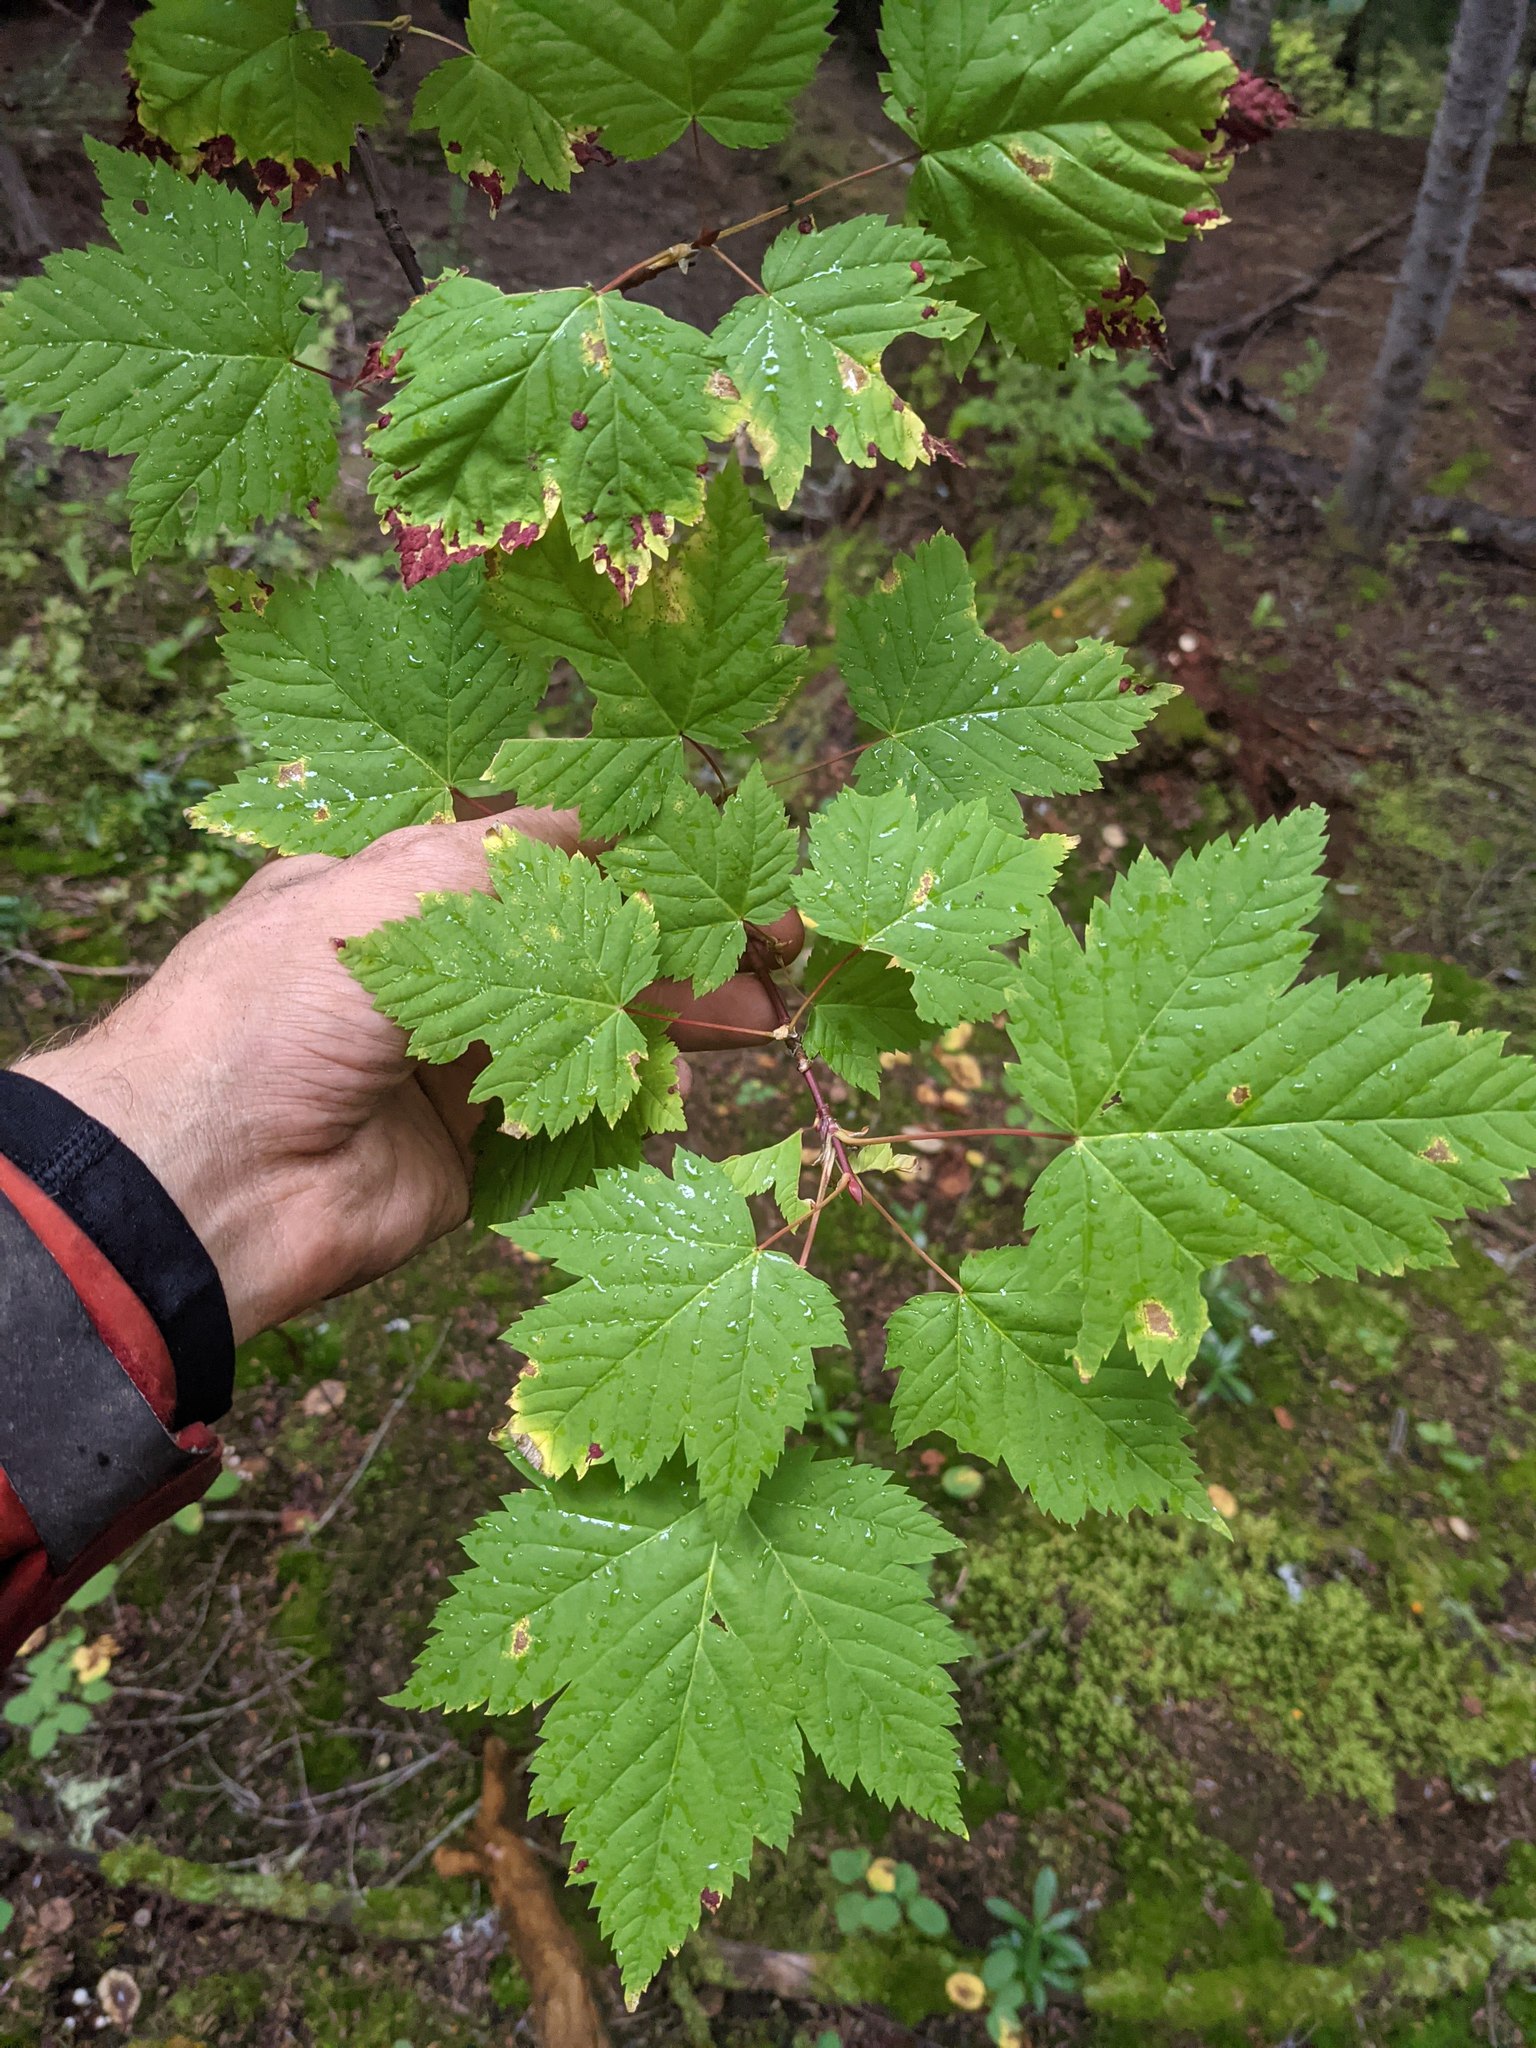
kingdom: Plantae
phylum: Tracheophyta
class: Magnoliopsida
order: Sapindales
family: Sapindaceae
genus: Acer
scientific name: Acer glabrum
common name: Rocky mountain maple
